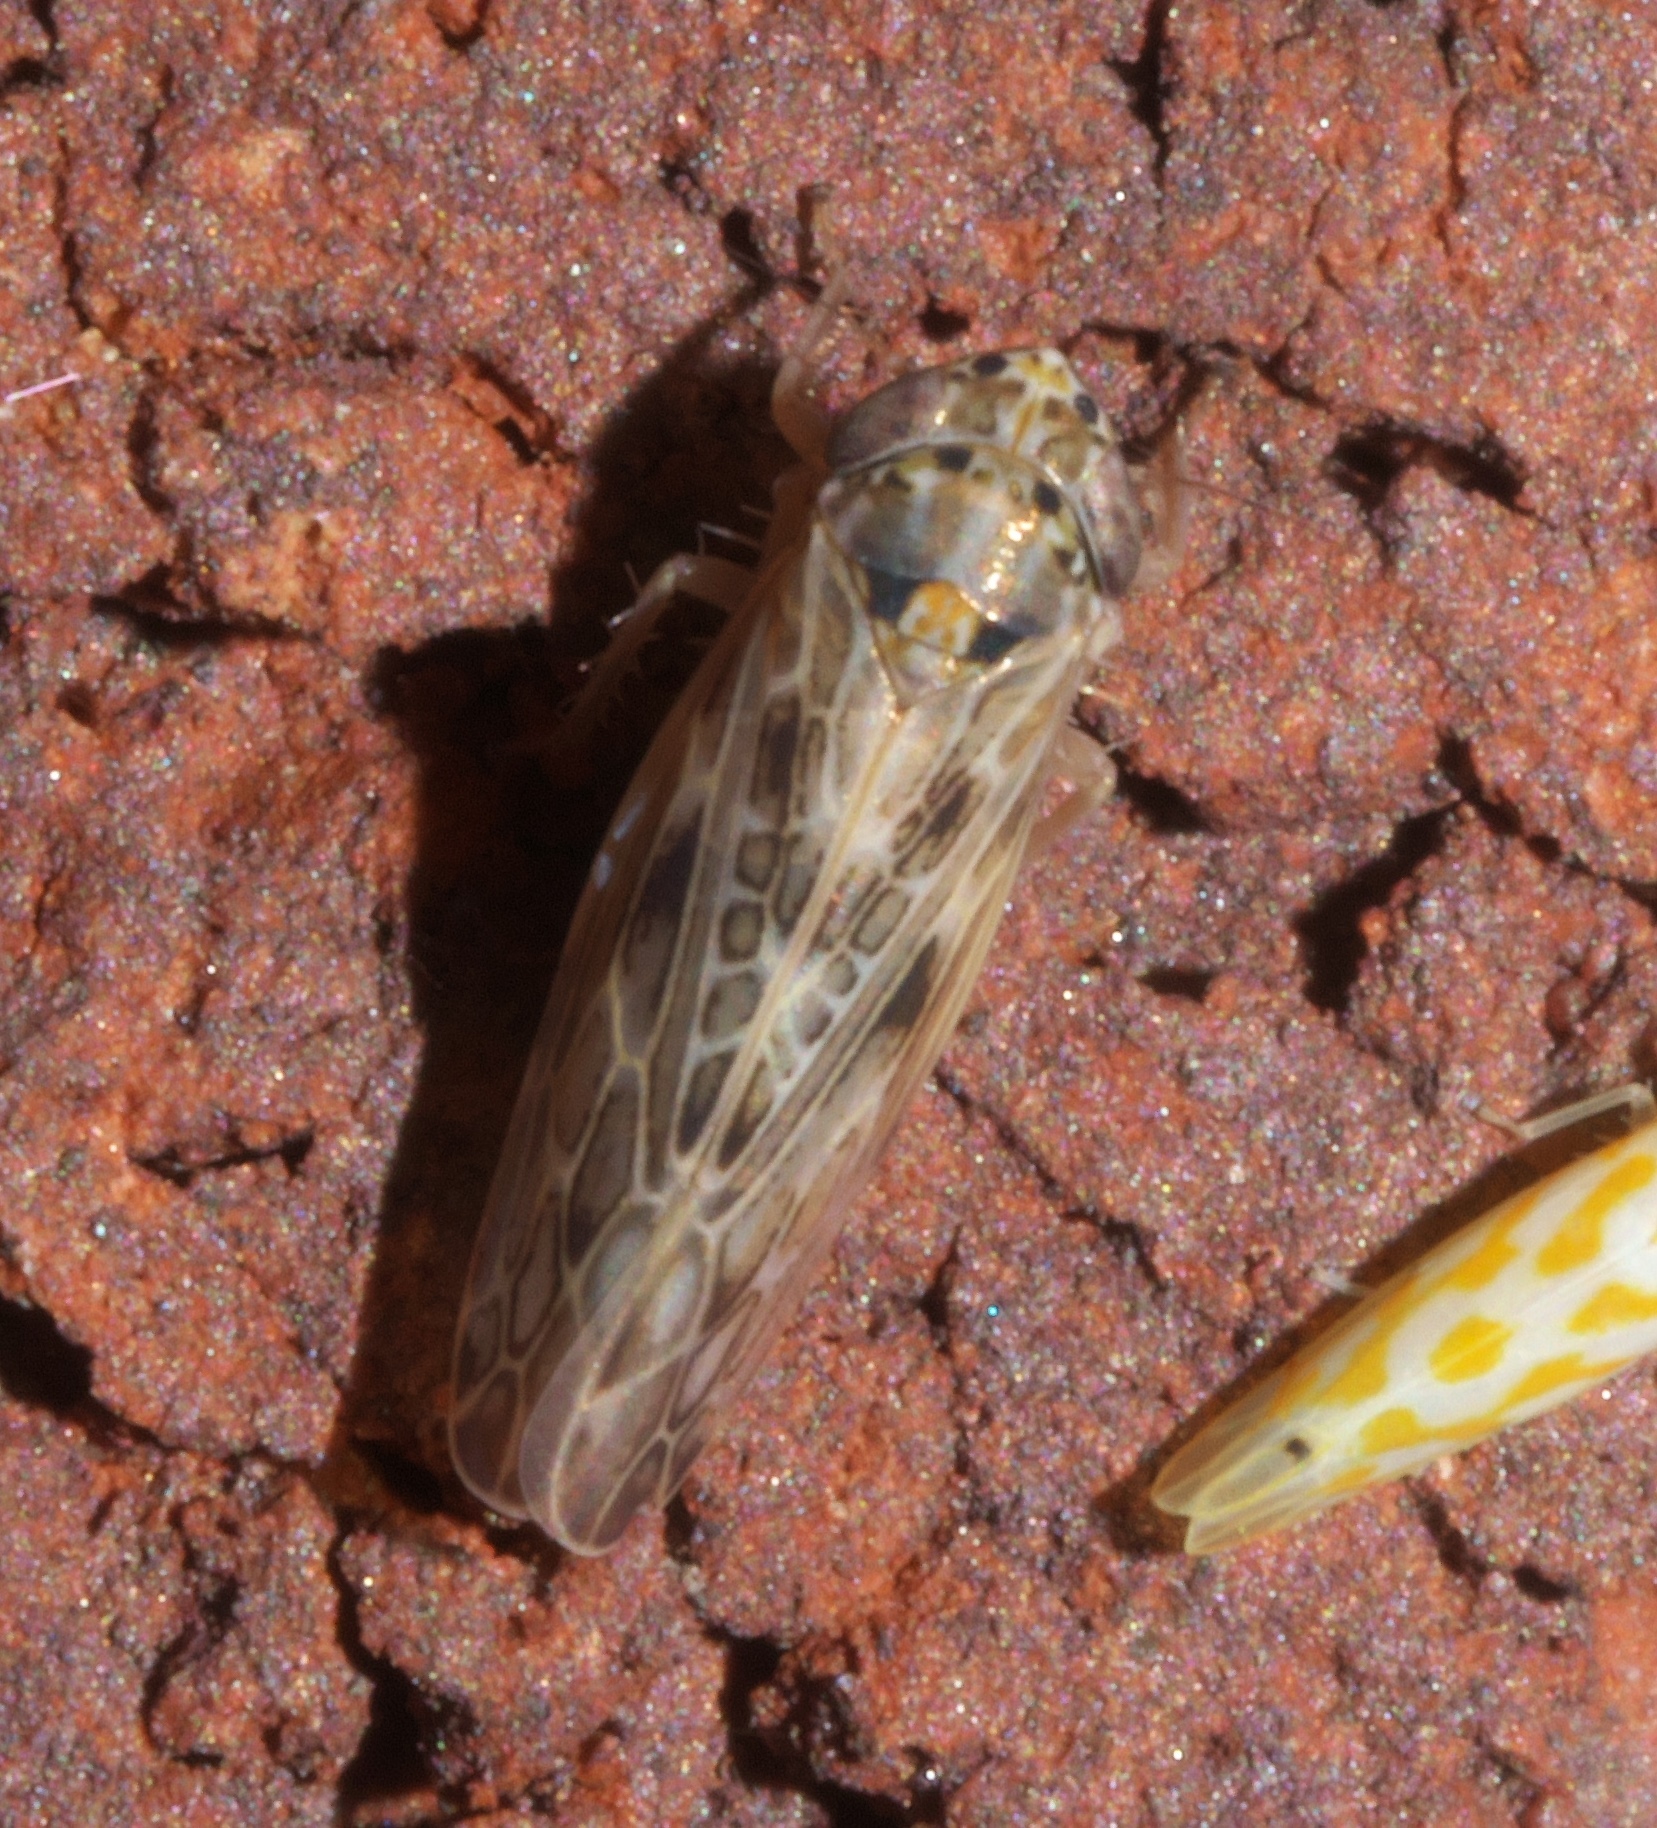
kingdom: Animalia
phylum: Arthropoda
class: Insecta
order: Hemiptera
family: Cicadellidae
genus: Endria
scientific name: Endria inimicus
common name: Painted leafhopper
